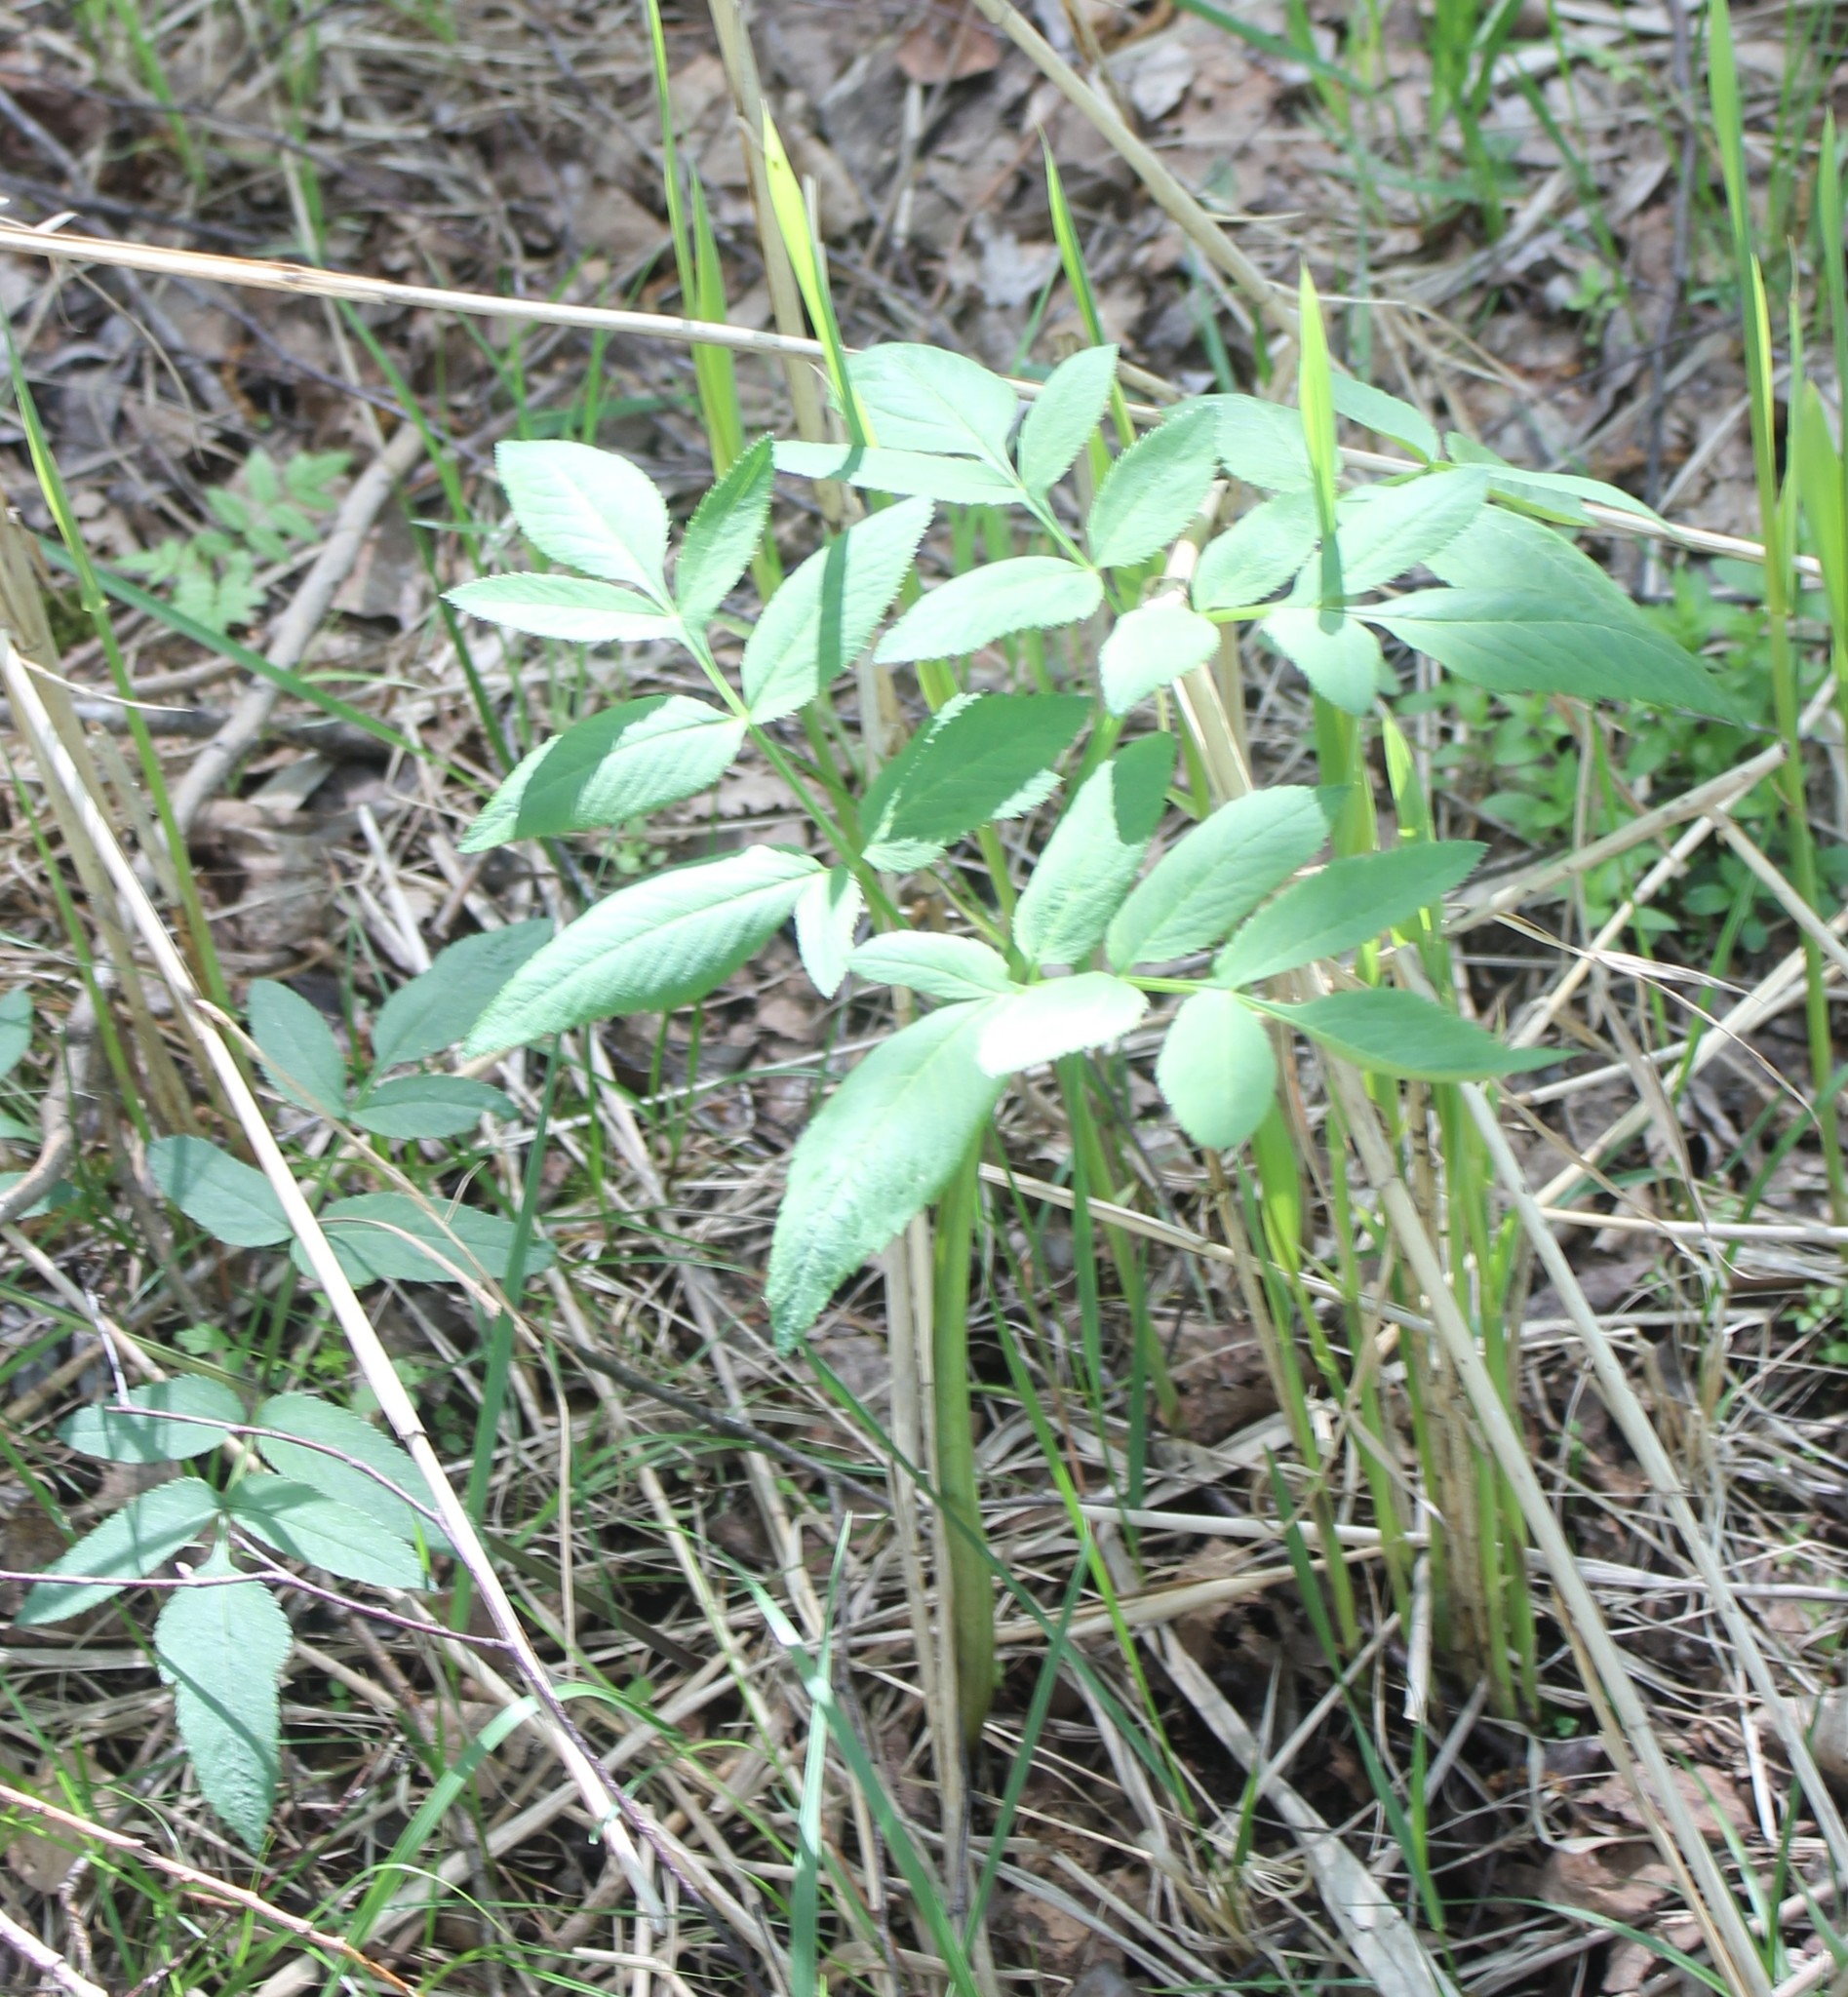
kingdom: Plantae
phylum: Tracheophyta
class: Magnoliopsida
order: Apiales
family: Apiaceae
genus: Angelica
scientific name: Angelica sylvestris
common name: Wild angelica
